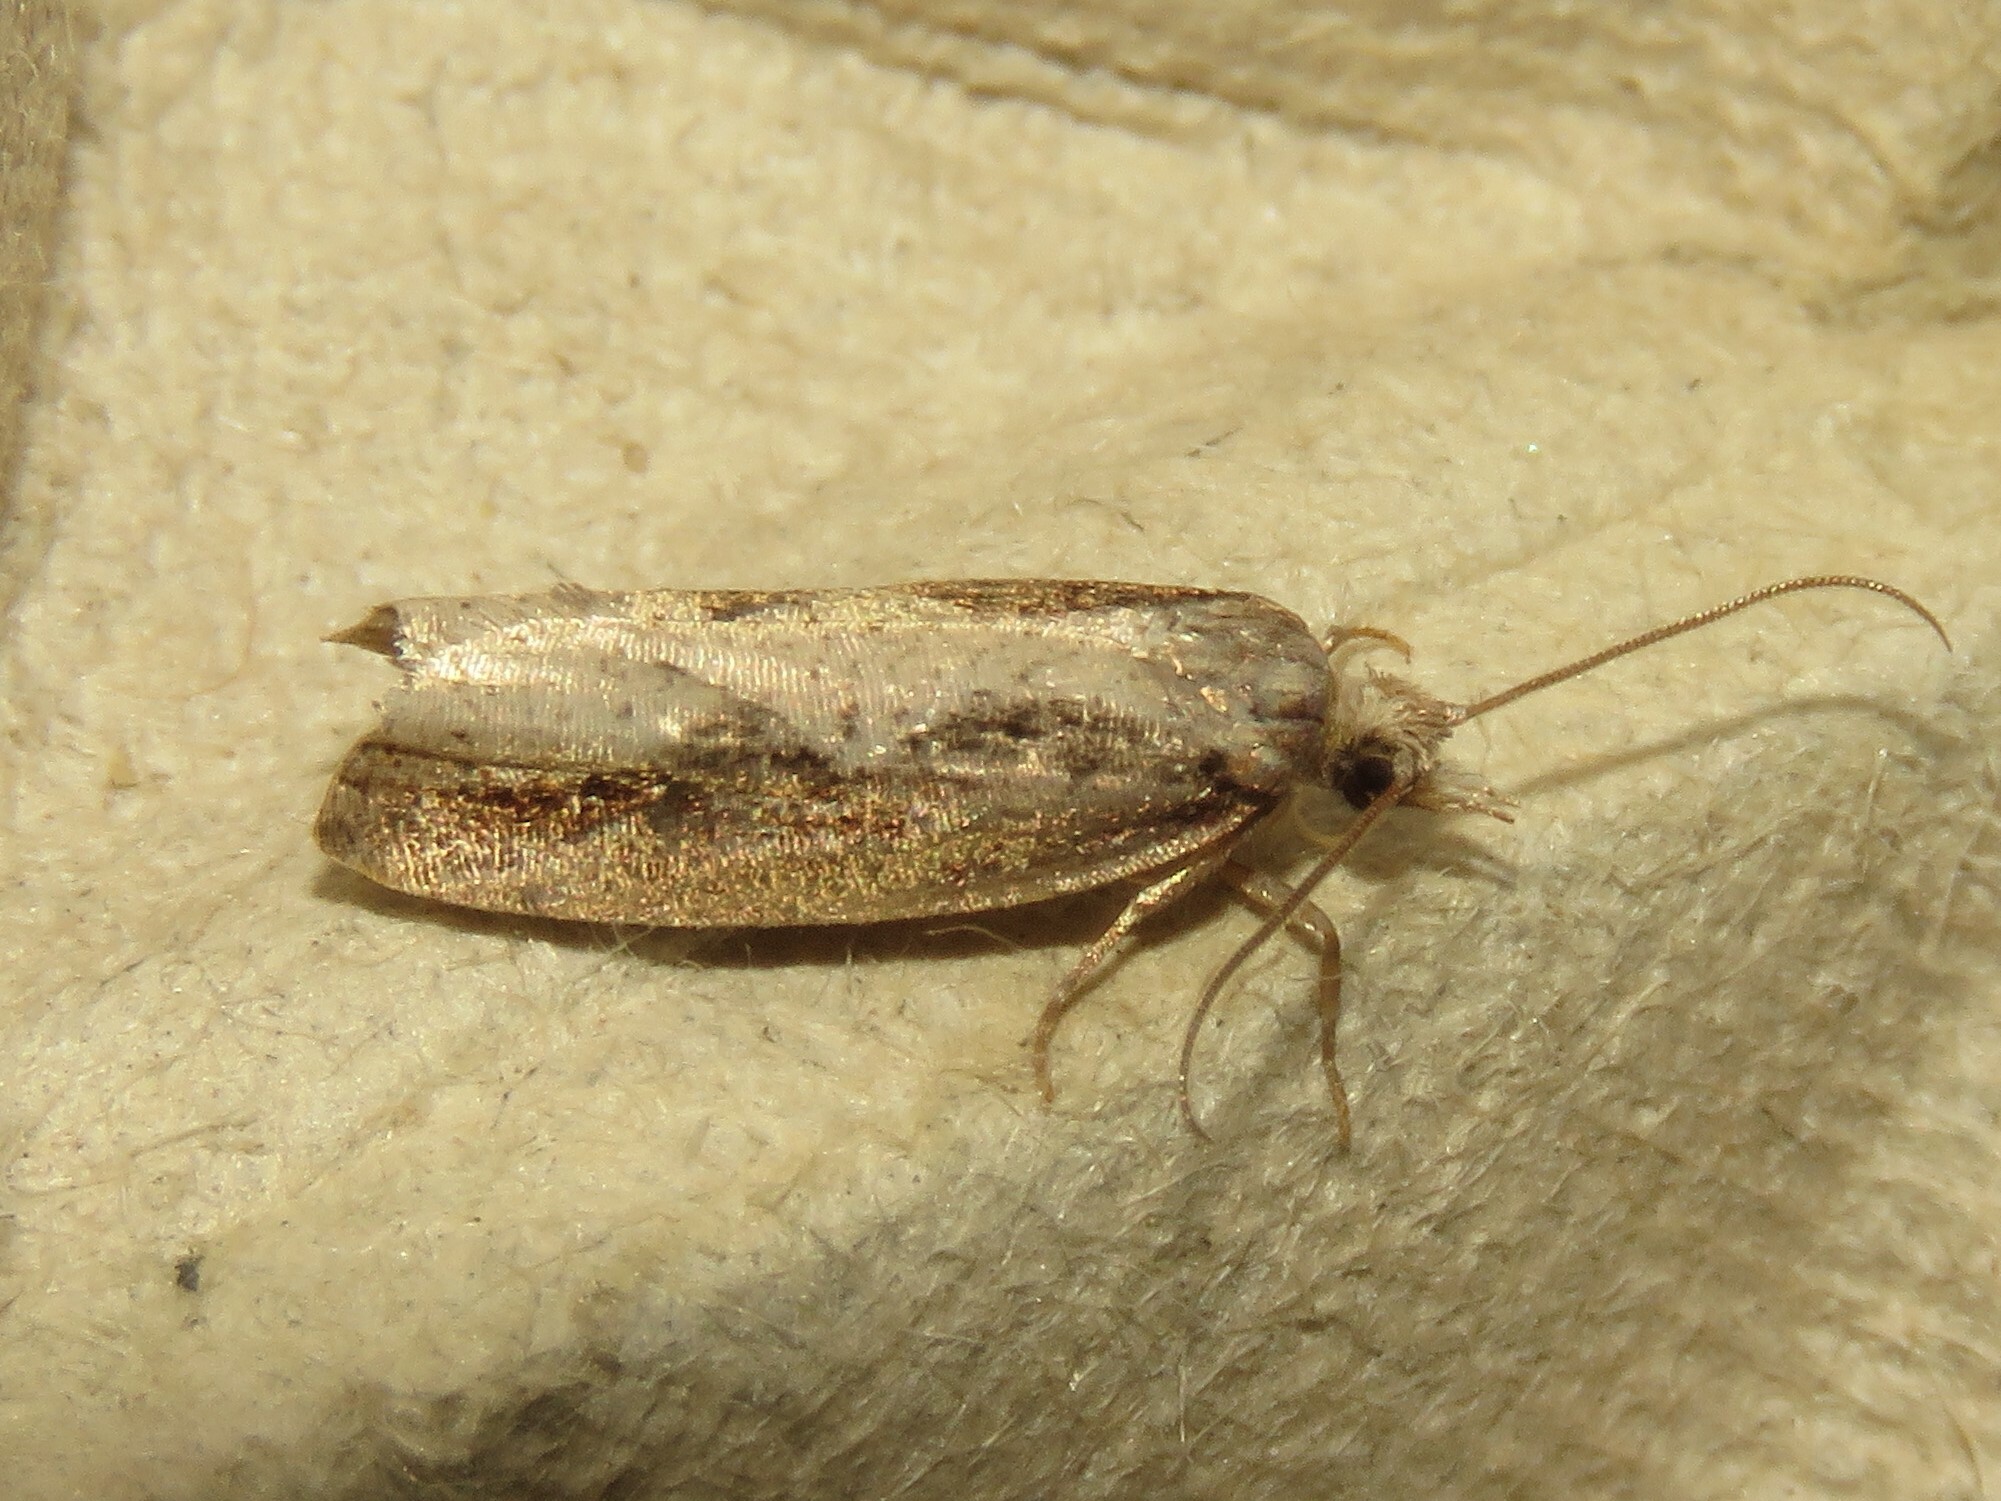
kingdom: Animalia
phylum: Arthropoda
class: Insecta
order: Lepidoptera
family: Tortricidae
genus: Epinotia
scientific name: Epinotia lindana
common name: Diamondback epinotia moth
